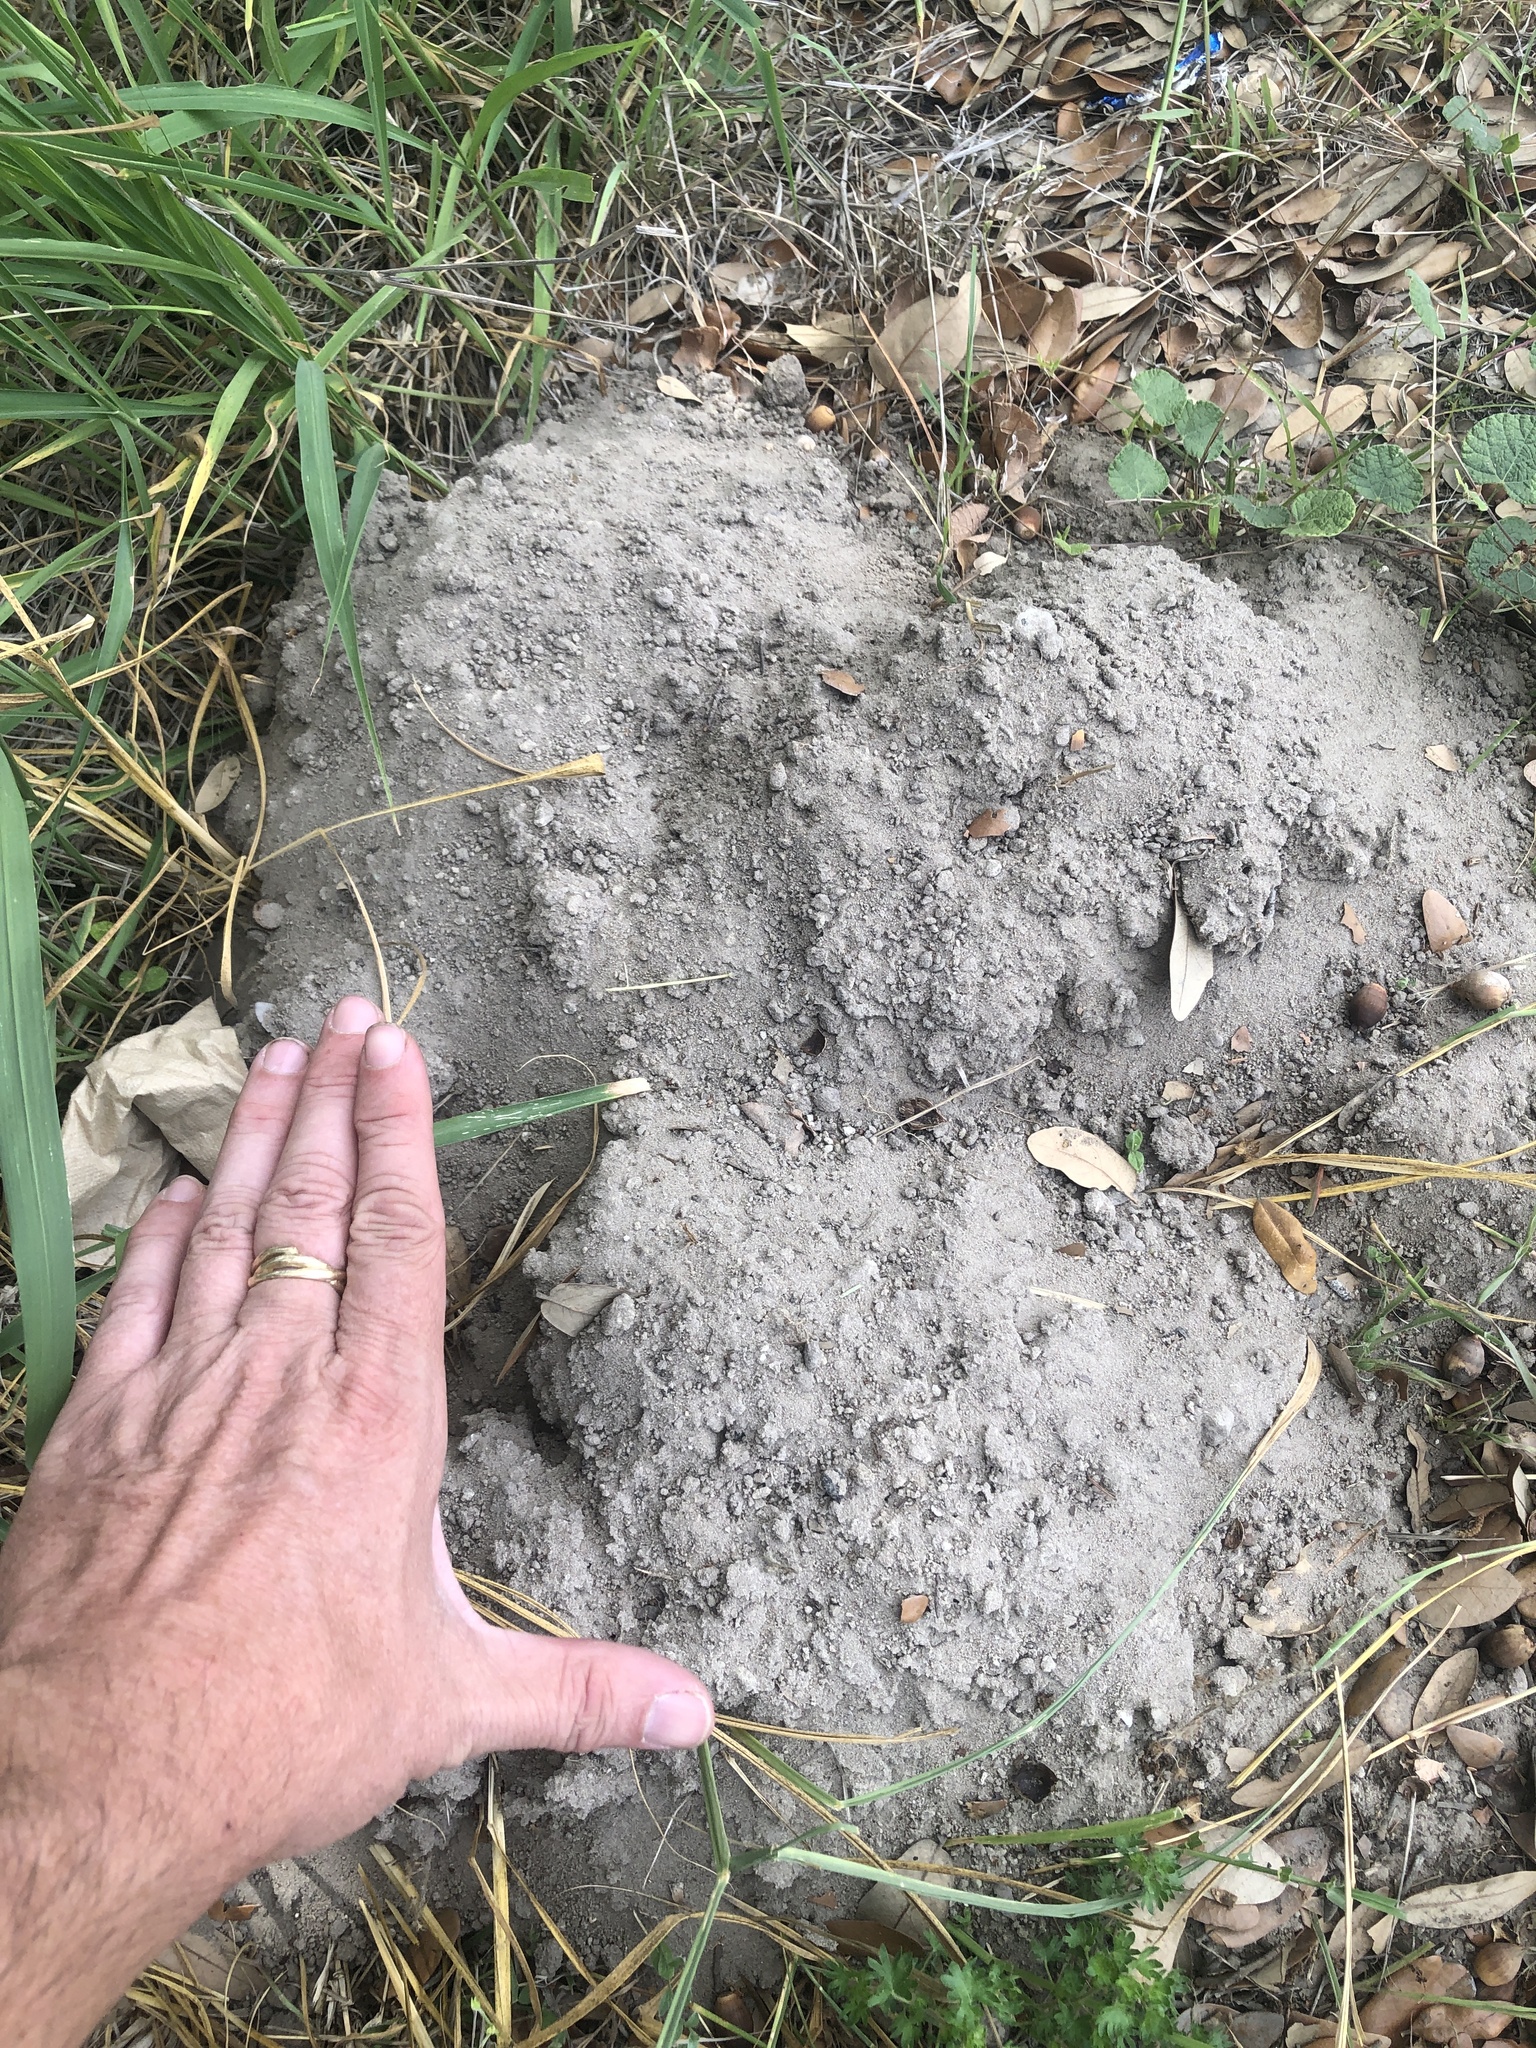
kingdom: Animalia
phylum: Chordata
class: Mammalia
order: Rodentia
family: Geomyidae
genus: Geomys
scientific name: Geomys personatus
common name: Texas pocket gopher
